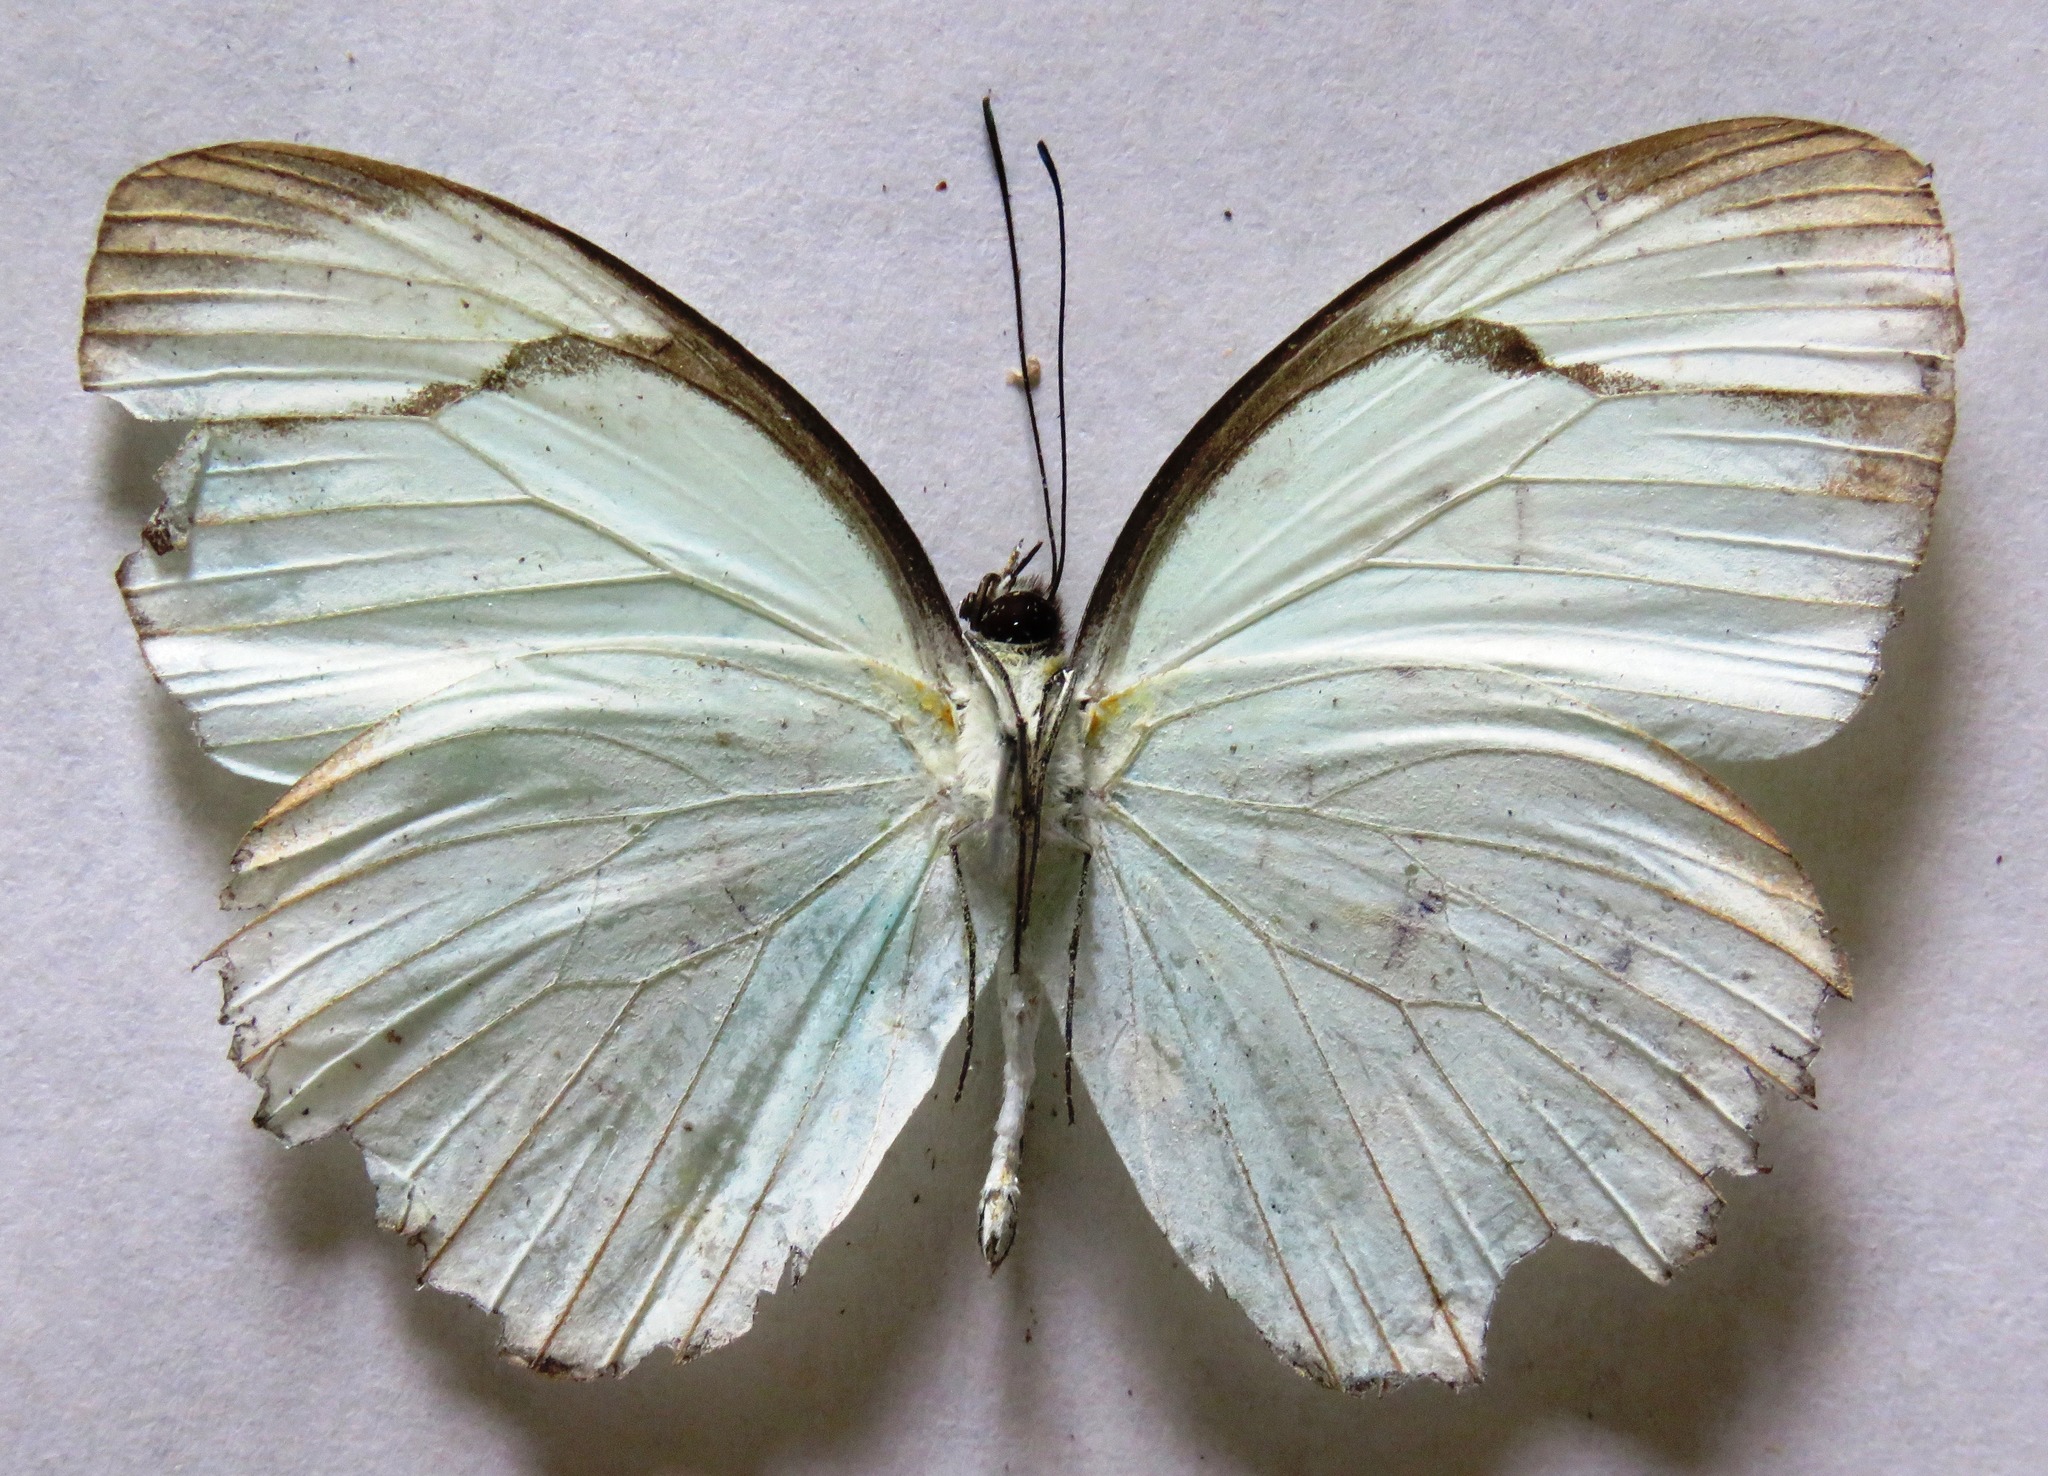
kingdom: Animalia
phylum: Arthropoda
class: Insecta
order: Lepidoptera
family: Pieridae
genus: Itaballia
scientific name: Itaballia demophile
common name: Cross-barred white
